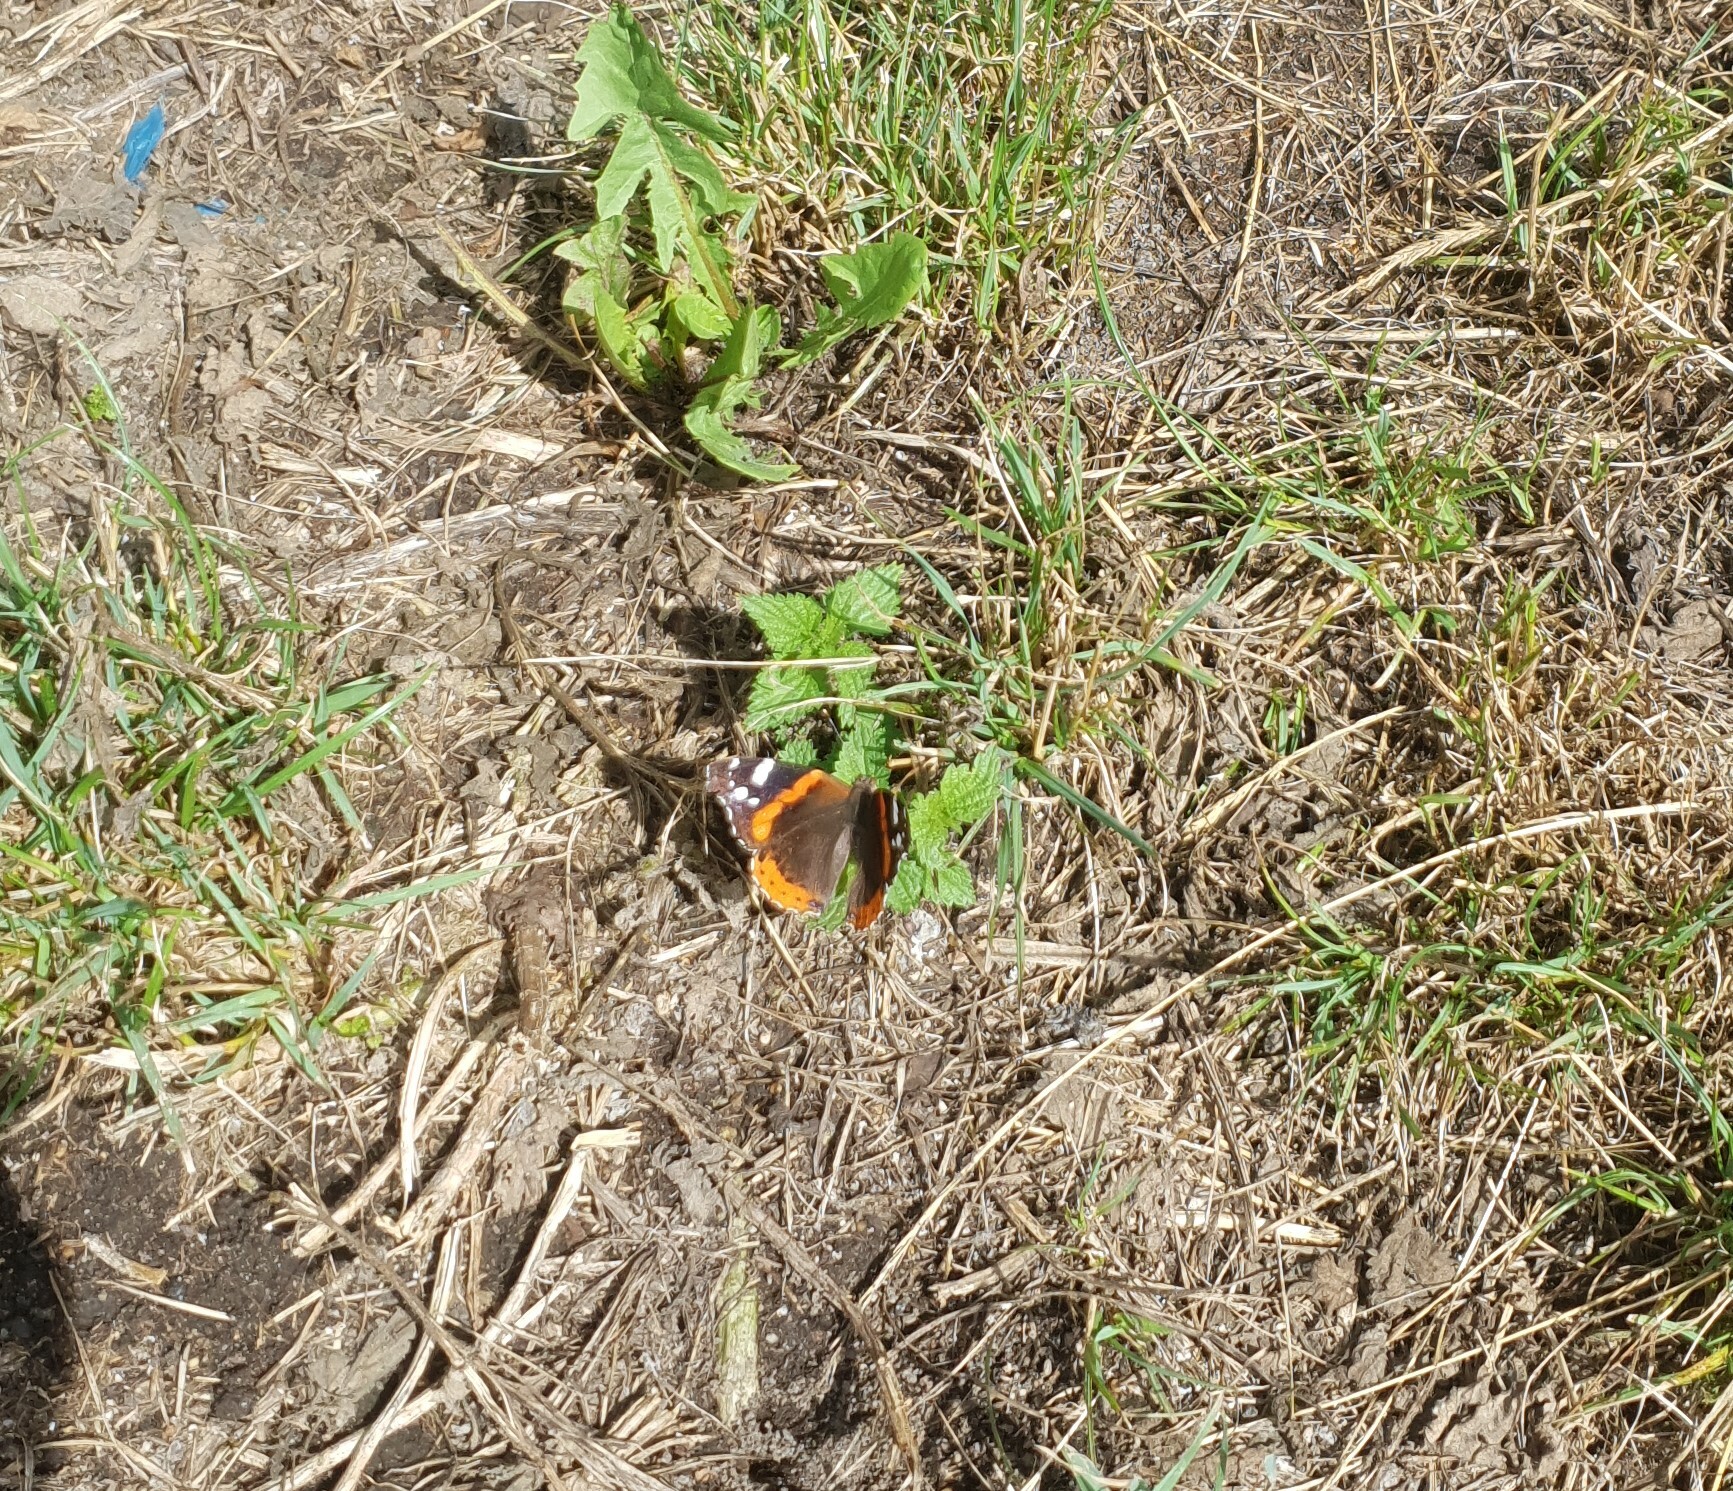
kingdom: Animalia
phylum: Arthropoda
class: Insecta
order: Lepidoptera
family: Nymphalidae
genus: Vanessa
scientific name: Vanessa atalanta
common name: Red admiral
